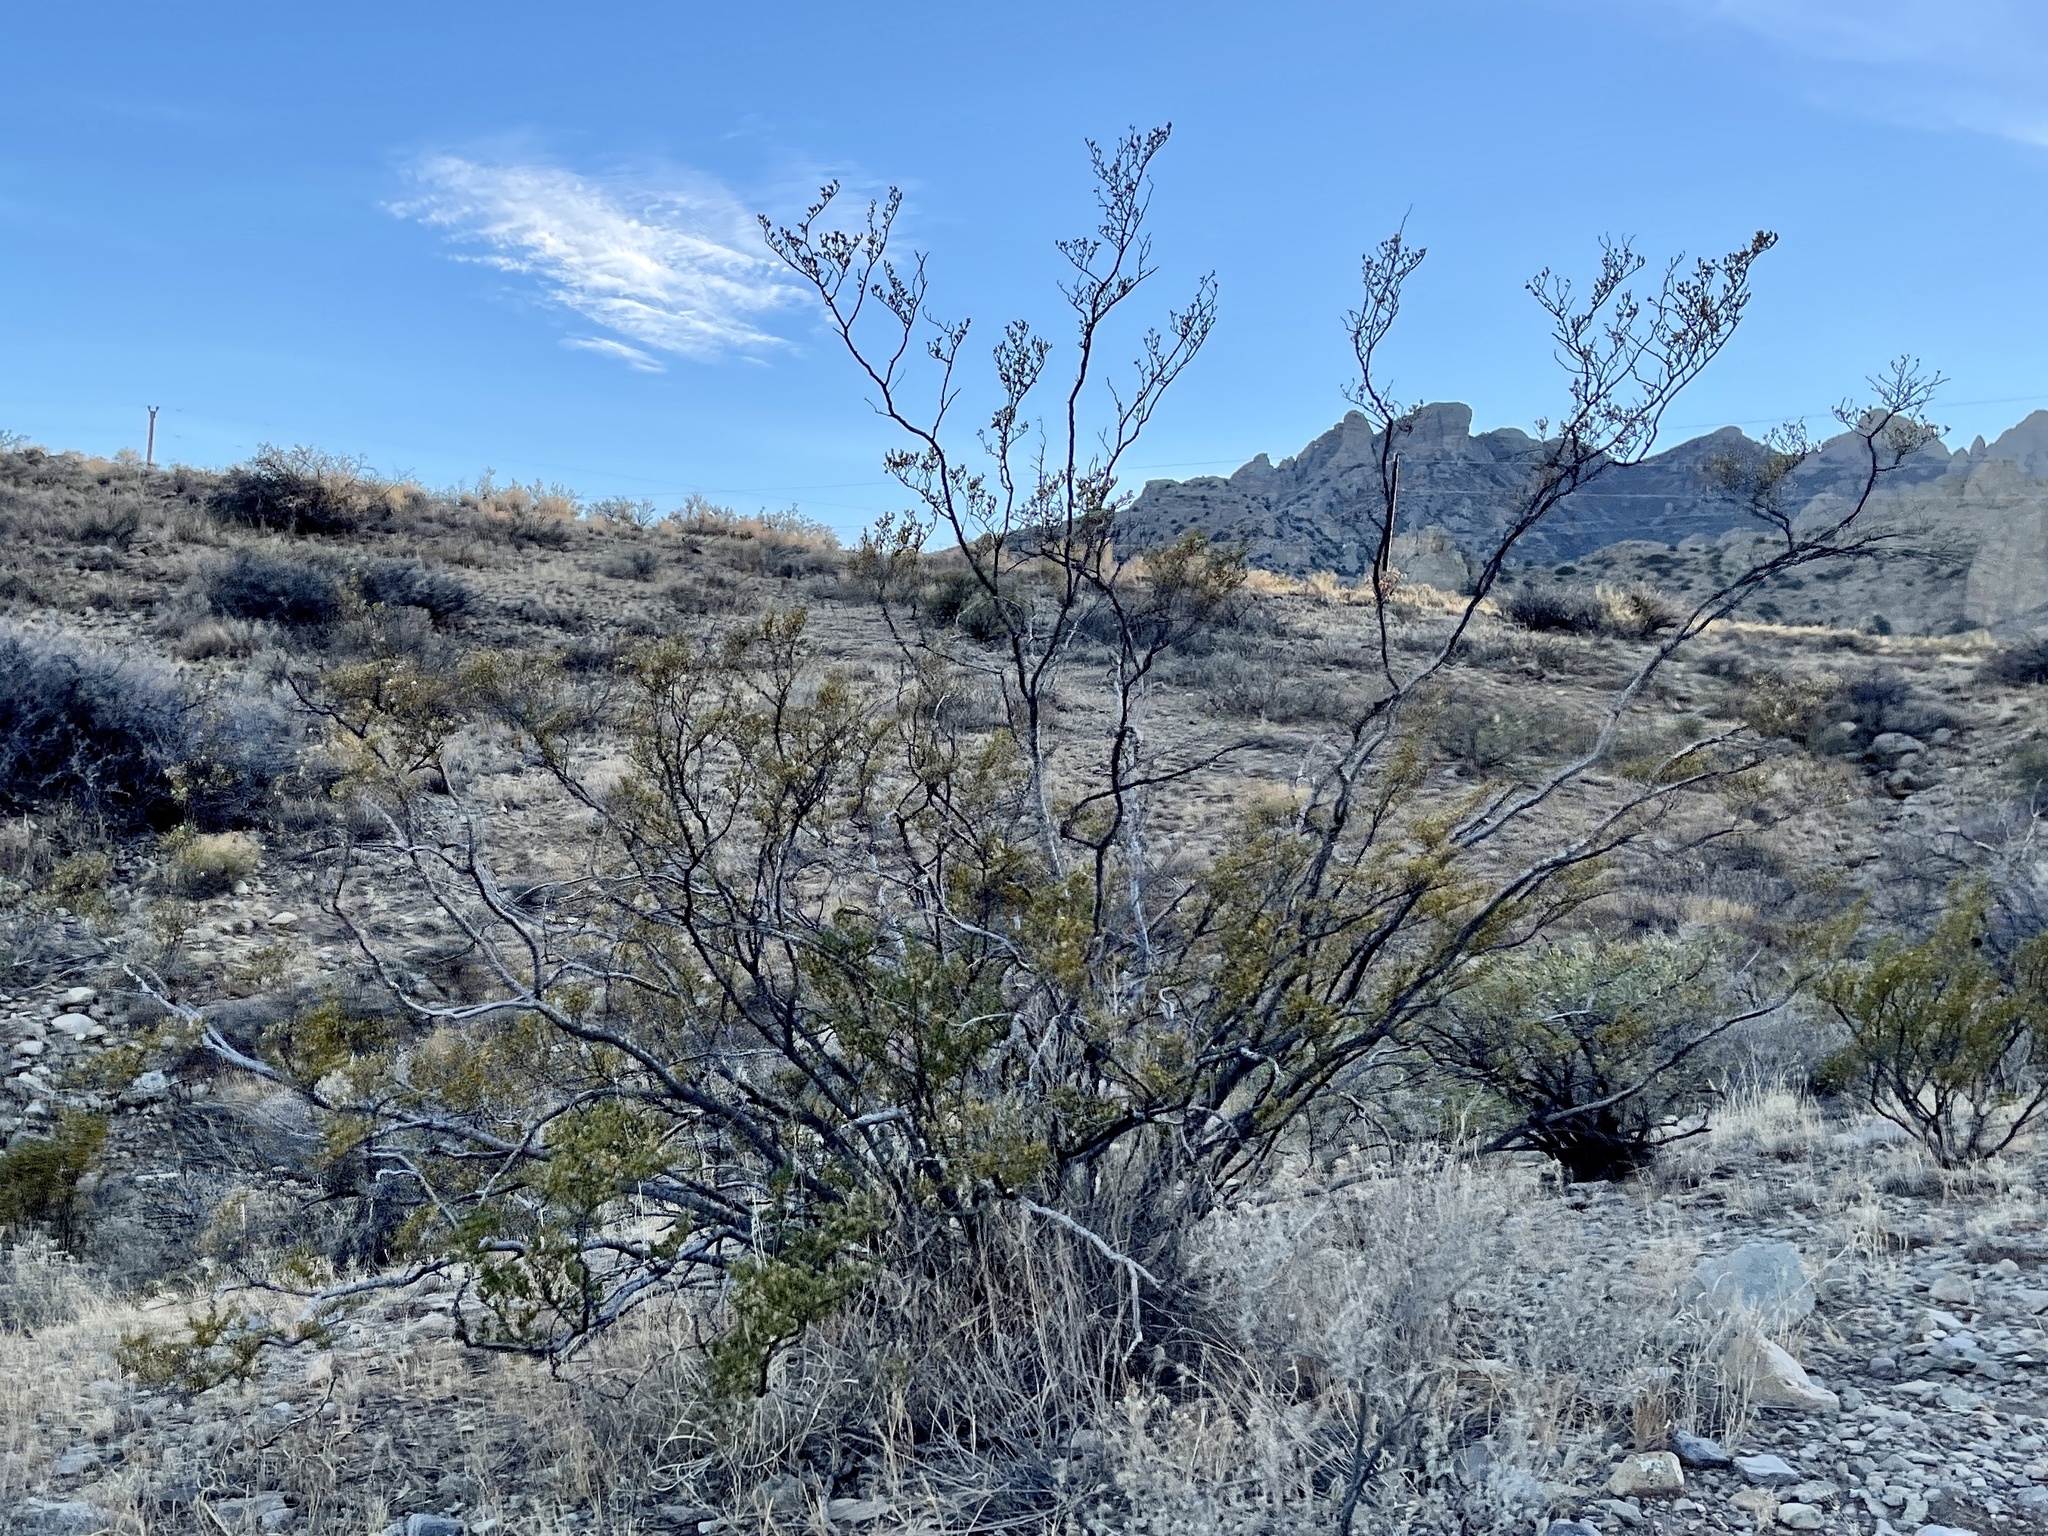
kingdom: Plantae
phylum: Tracheophyta
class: Magnoliopsida
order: Zygophyllales
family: Zygophyllaceae
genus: Larrea
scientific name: Larrea tridentata
